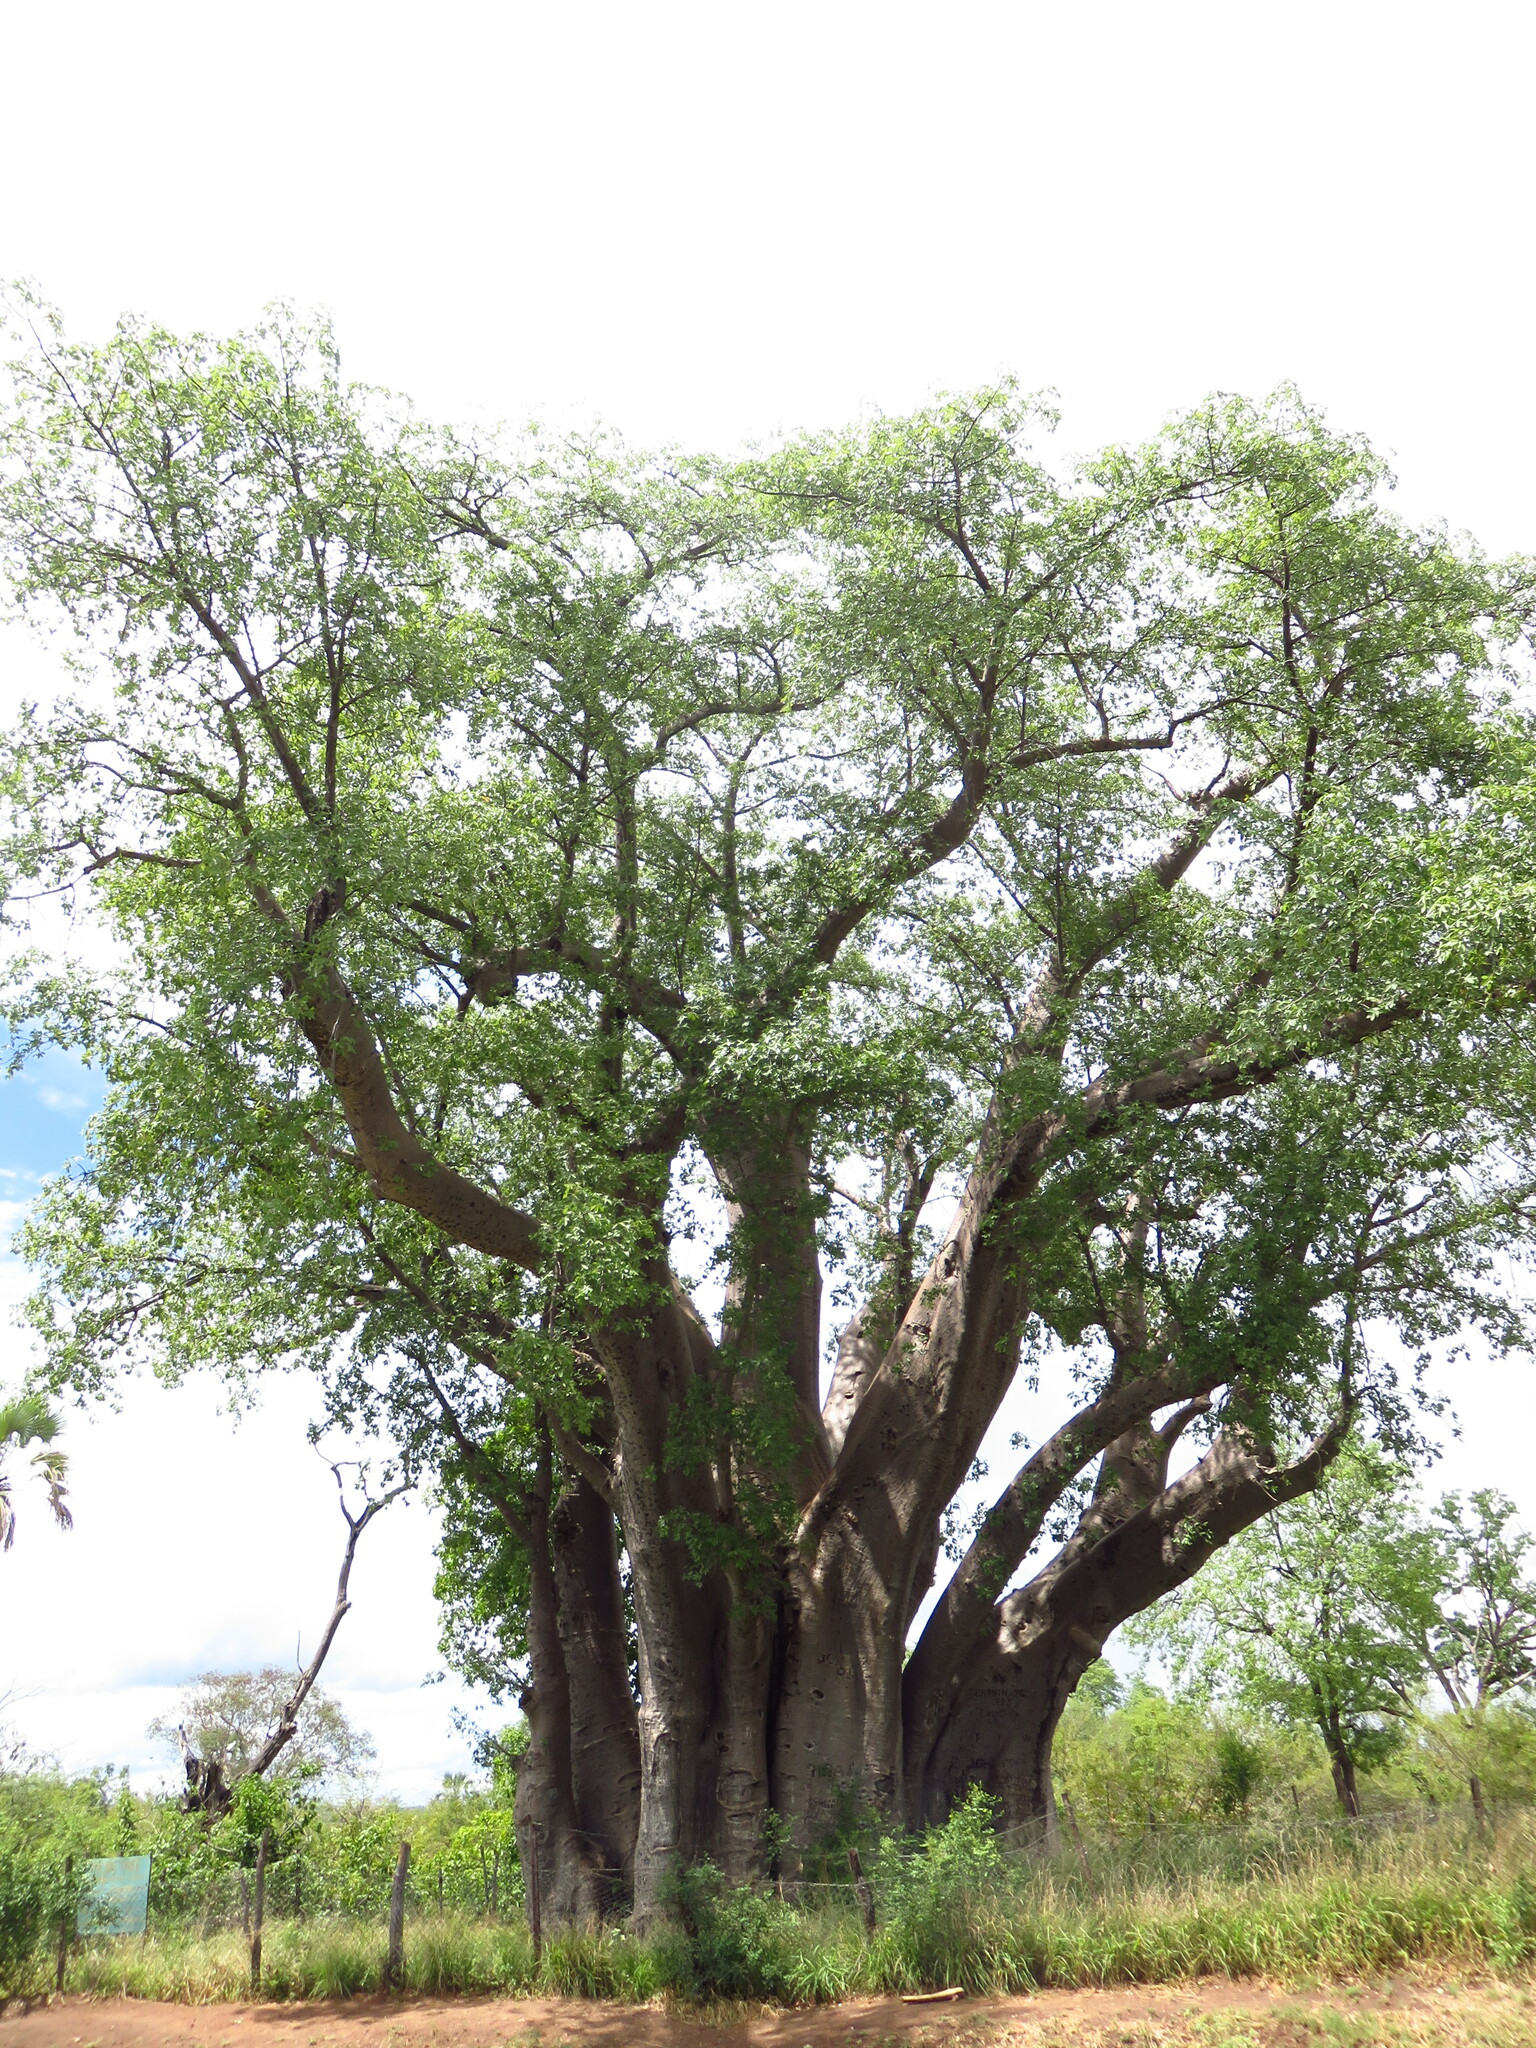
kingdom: Plantae
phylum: Tracheophyta
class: Magnoliopsida
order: Malvales
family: Malvaceae
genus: Adansonia
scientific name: Adansonia digitata
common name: Dead-rat-tree
